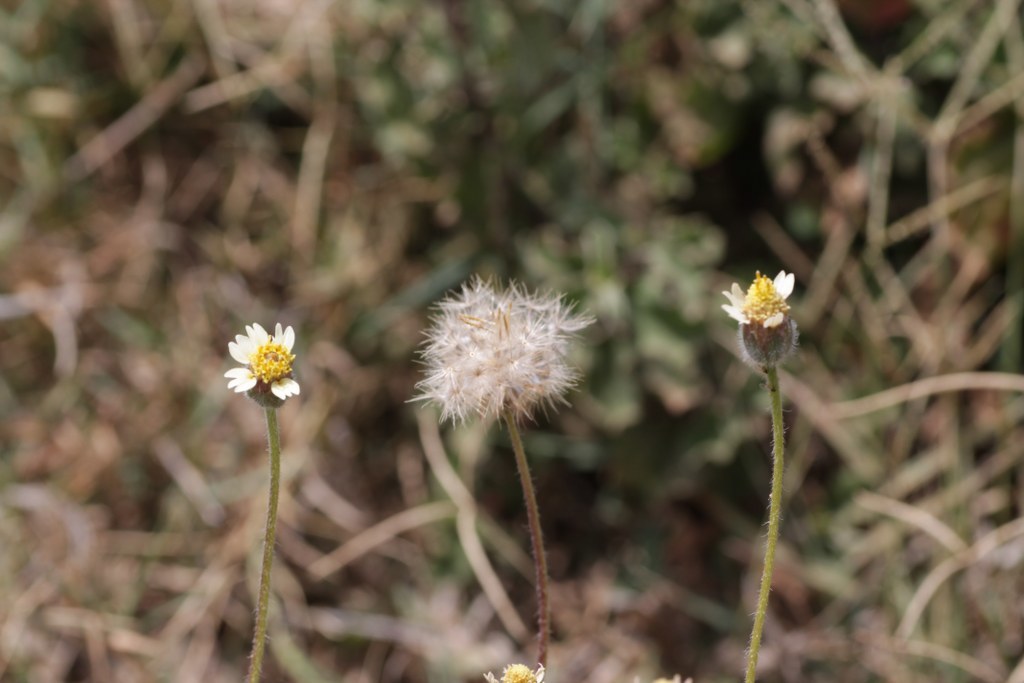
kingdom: Plantae
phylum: Tracheophyta
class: Magnoliopsida
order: Asterales
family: Asteraceae
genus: Tridax
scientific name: Tridax procumbens
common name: Coatbuttons
